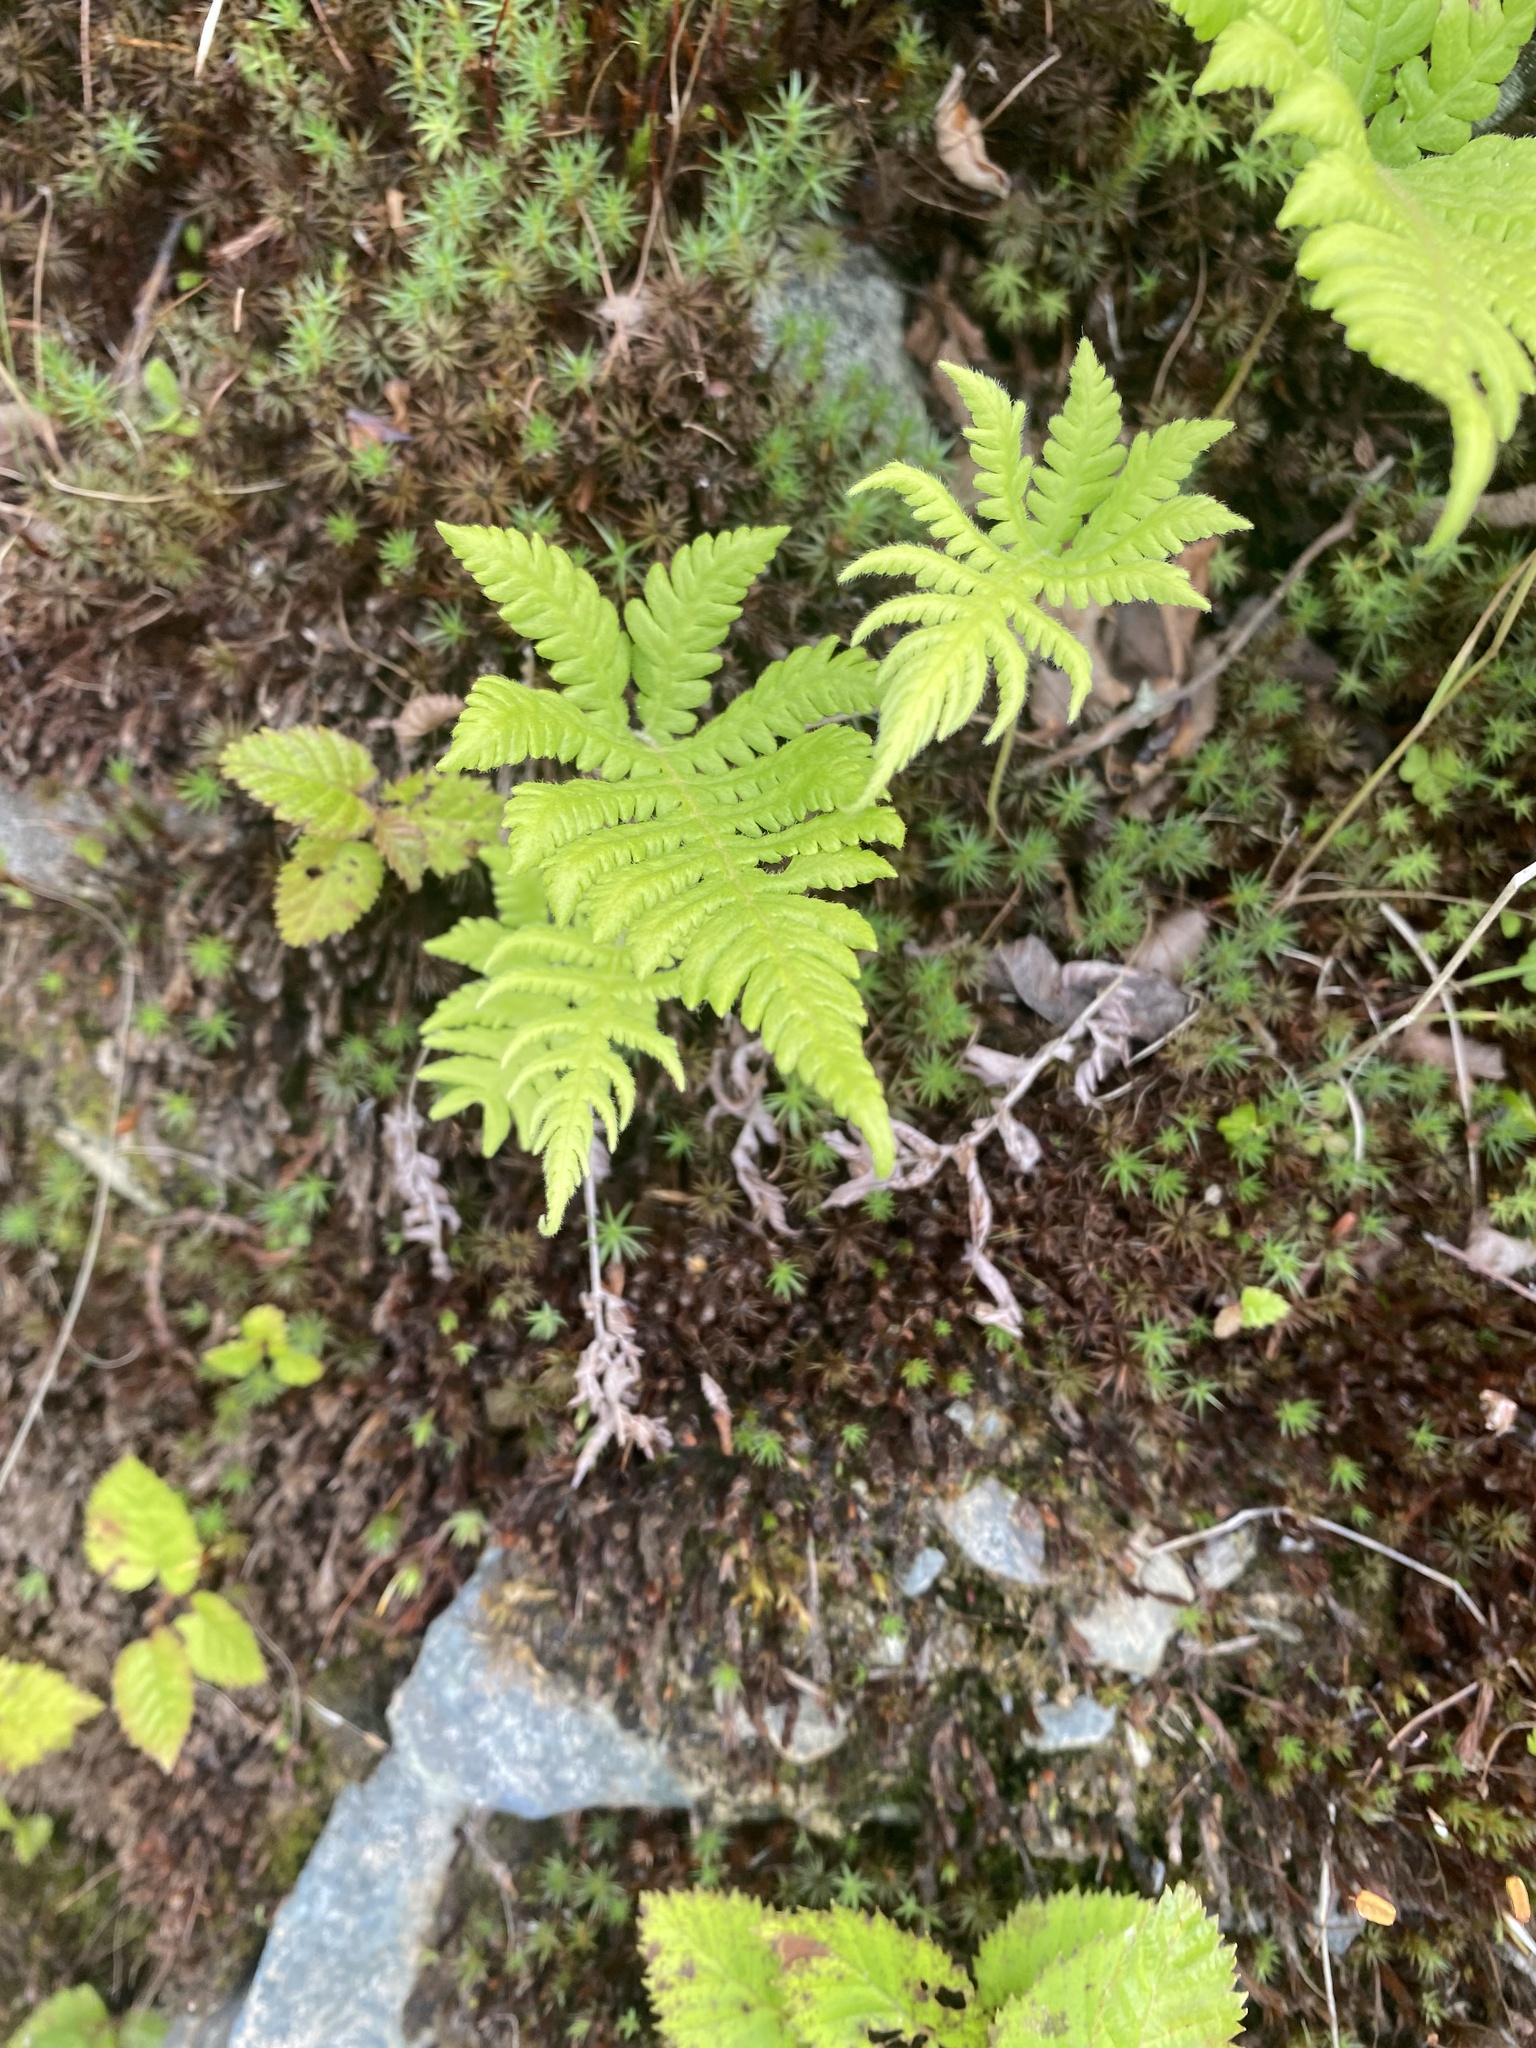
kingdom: Plantae
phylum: Tracheophyta
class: Polypodiopsida
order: Polypodiales
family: Thelypteridaceae
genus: Phegopteris
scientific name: Phegopteris connectilis
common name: Beech fern
